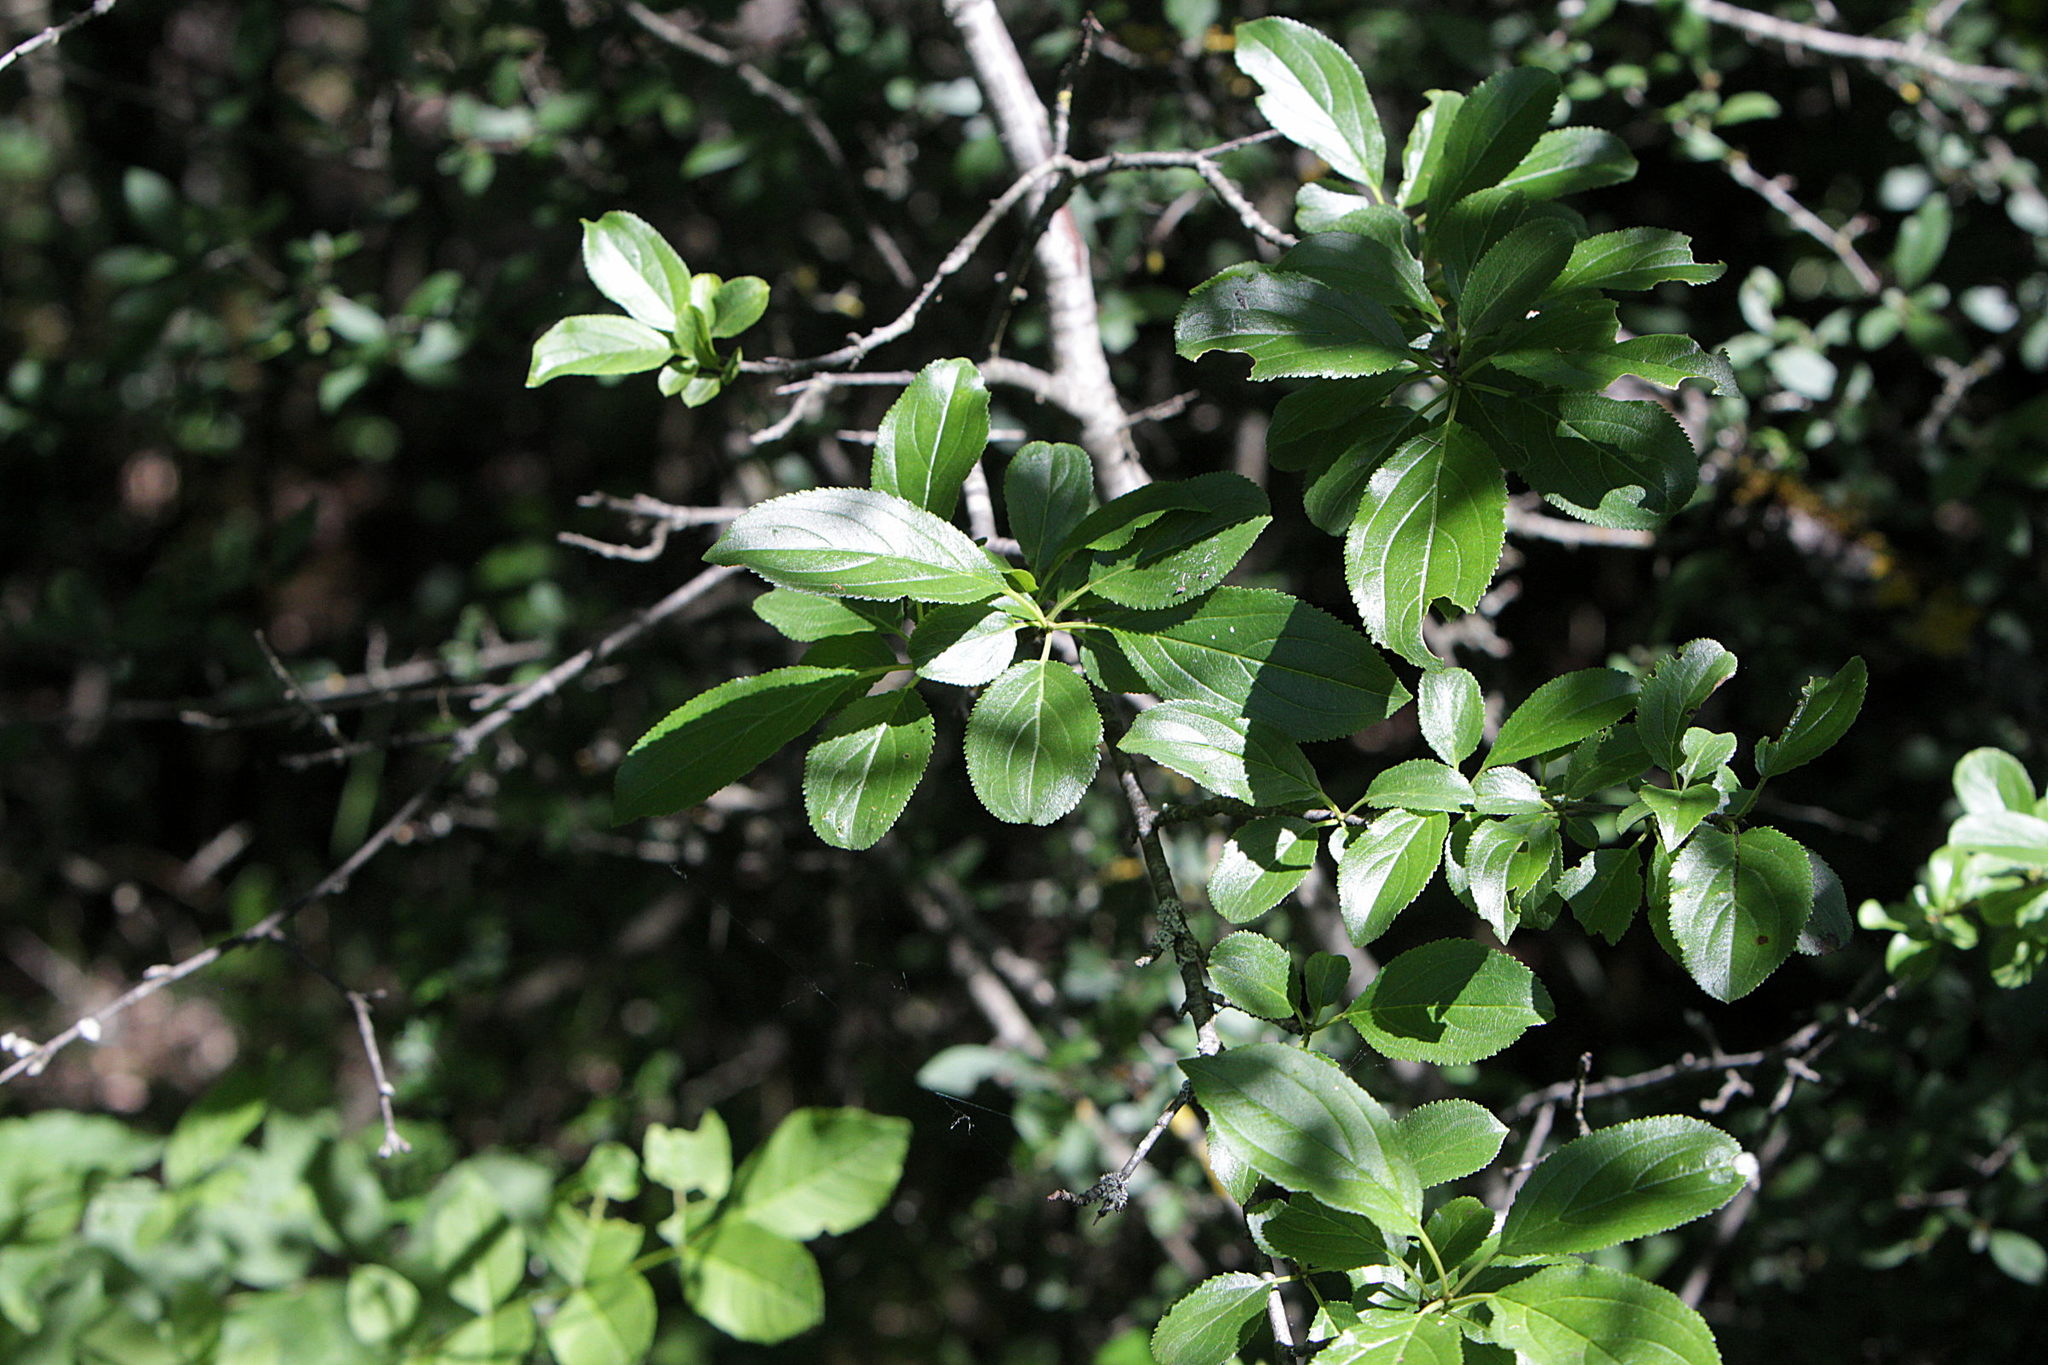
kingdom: Plantae
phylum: Tracheophyta
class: Magnoliopsida
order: Rosales
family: Rhamnaceae
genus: Rhamnus
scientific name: Rhamnus cathartica
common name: Common buckthorn
